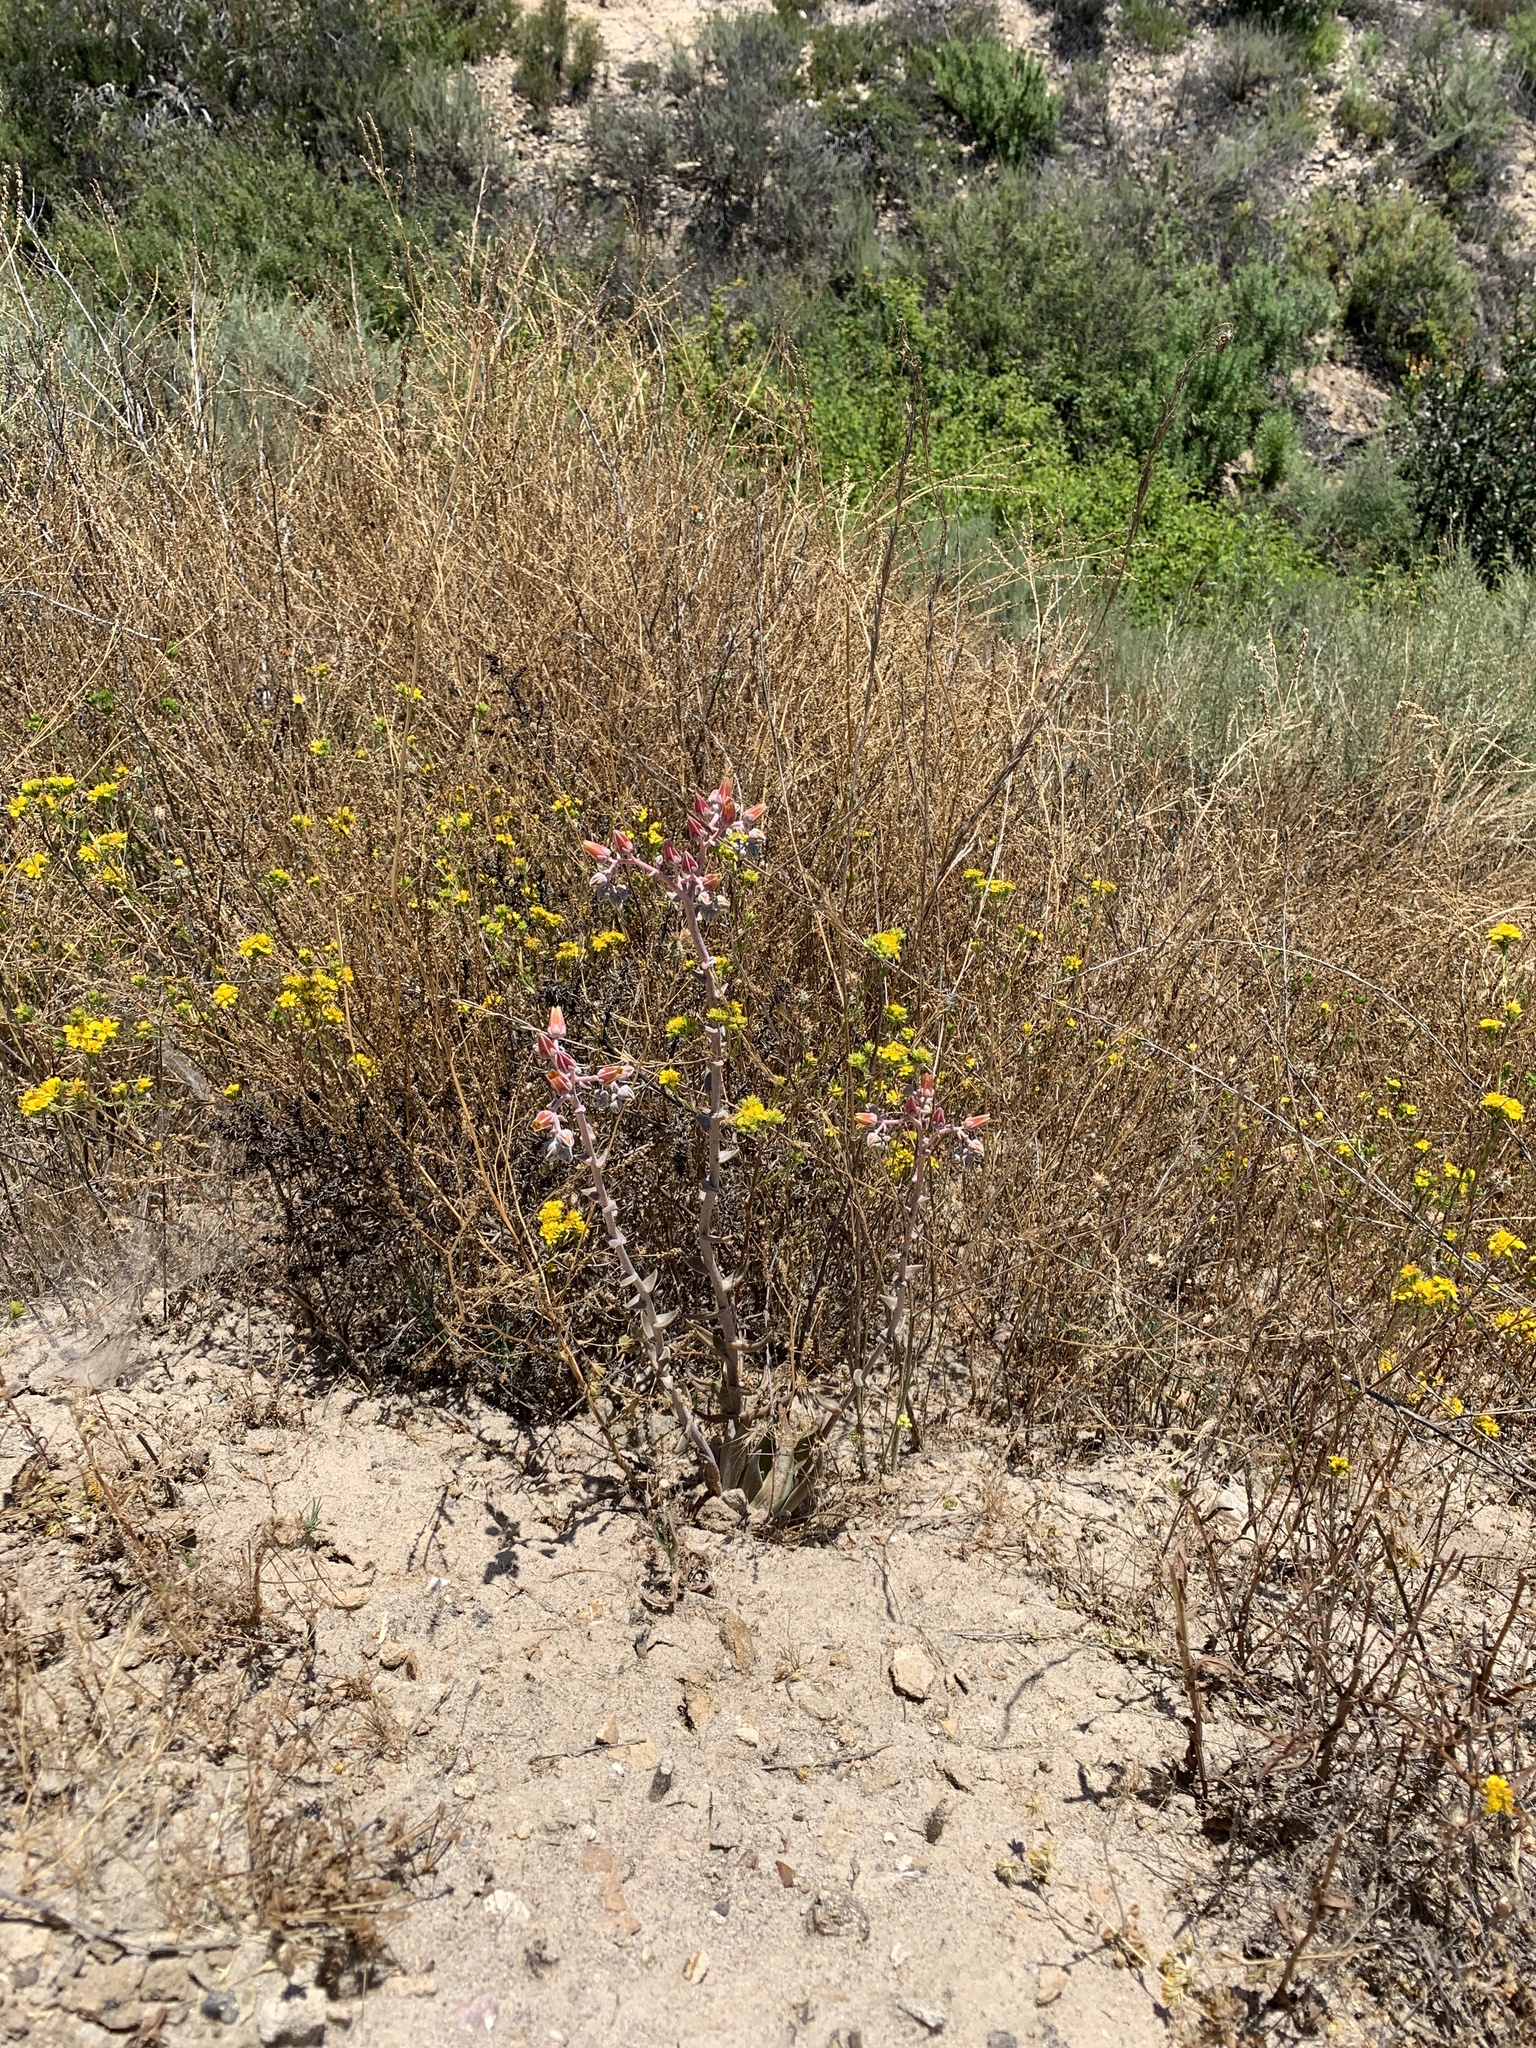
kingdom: Plantae
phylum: Tracheophyta
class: Magnoliopsida
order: Saxifragales
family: Crassulaceae
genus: Dudleya
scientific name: Dudleya lanceolata
